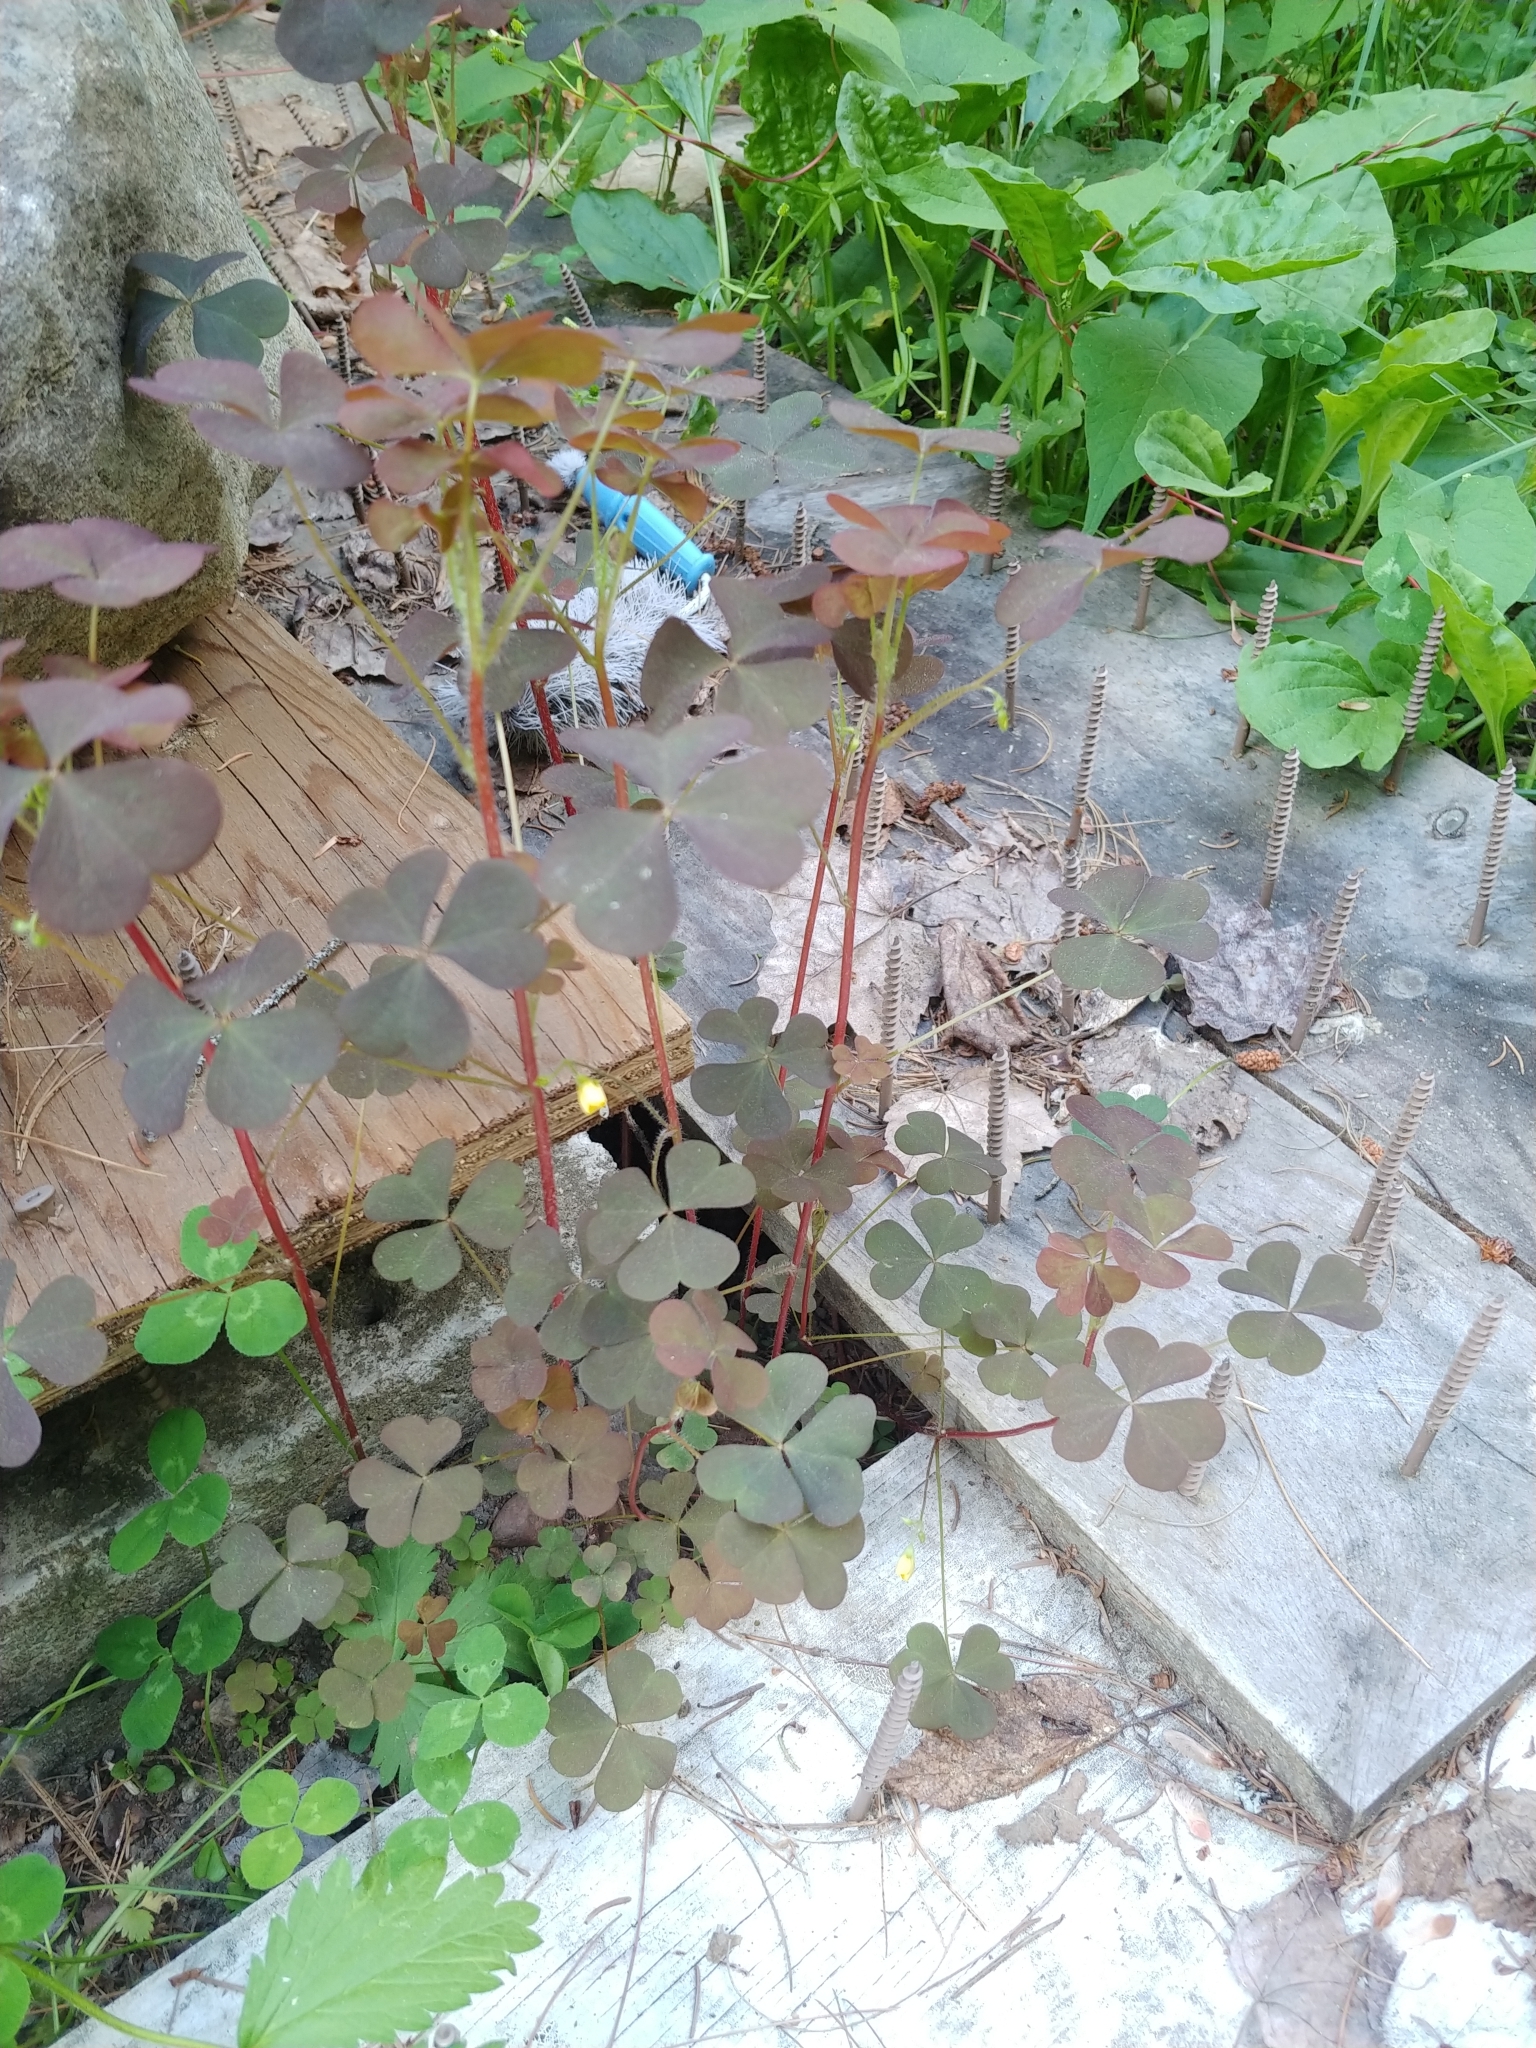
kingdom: Plantae
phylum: Tracheophyta
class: Magnoliopsida
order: Oxalidales
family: Oxalidaceae
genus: Oxalis
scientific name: Oxalis stricta
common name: Upright yellow-sorrel
